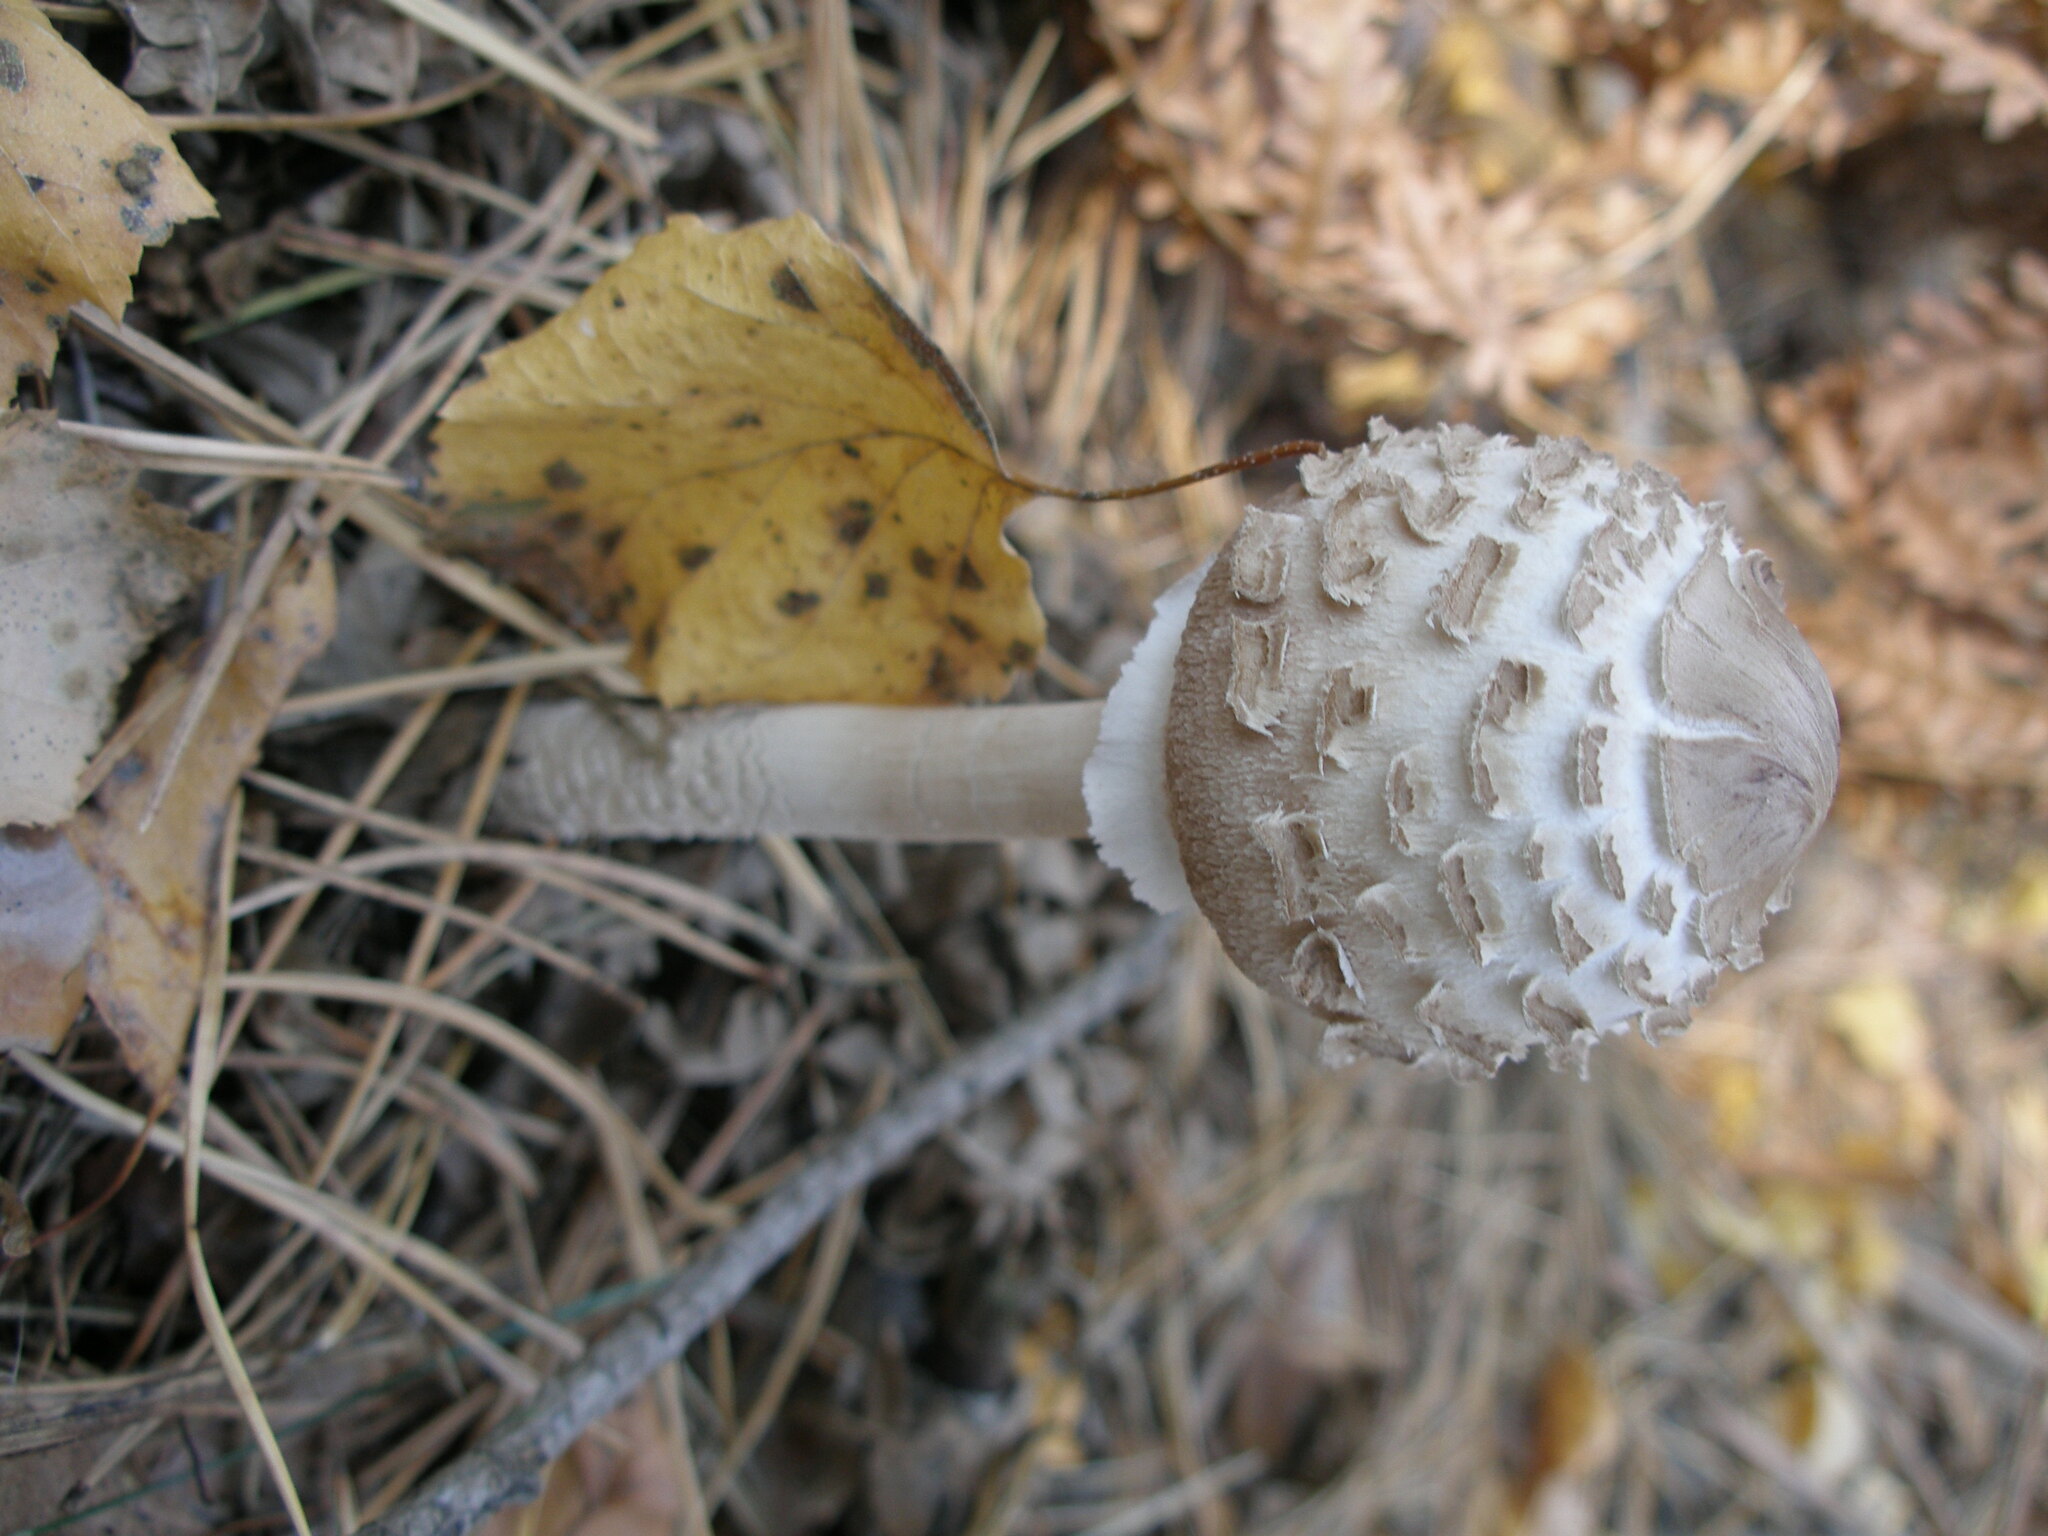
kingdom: Fungi
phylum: Basidiomycota
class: Agaricomycetes
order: Agaricales
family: Agaricaceae
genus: Macrolepiota
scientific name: Macrolepiota procera
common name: Parasol
